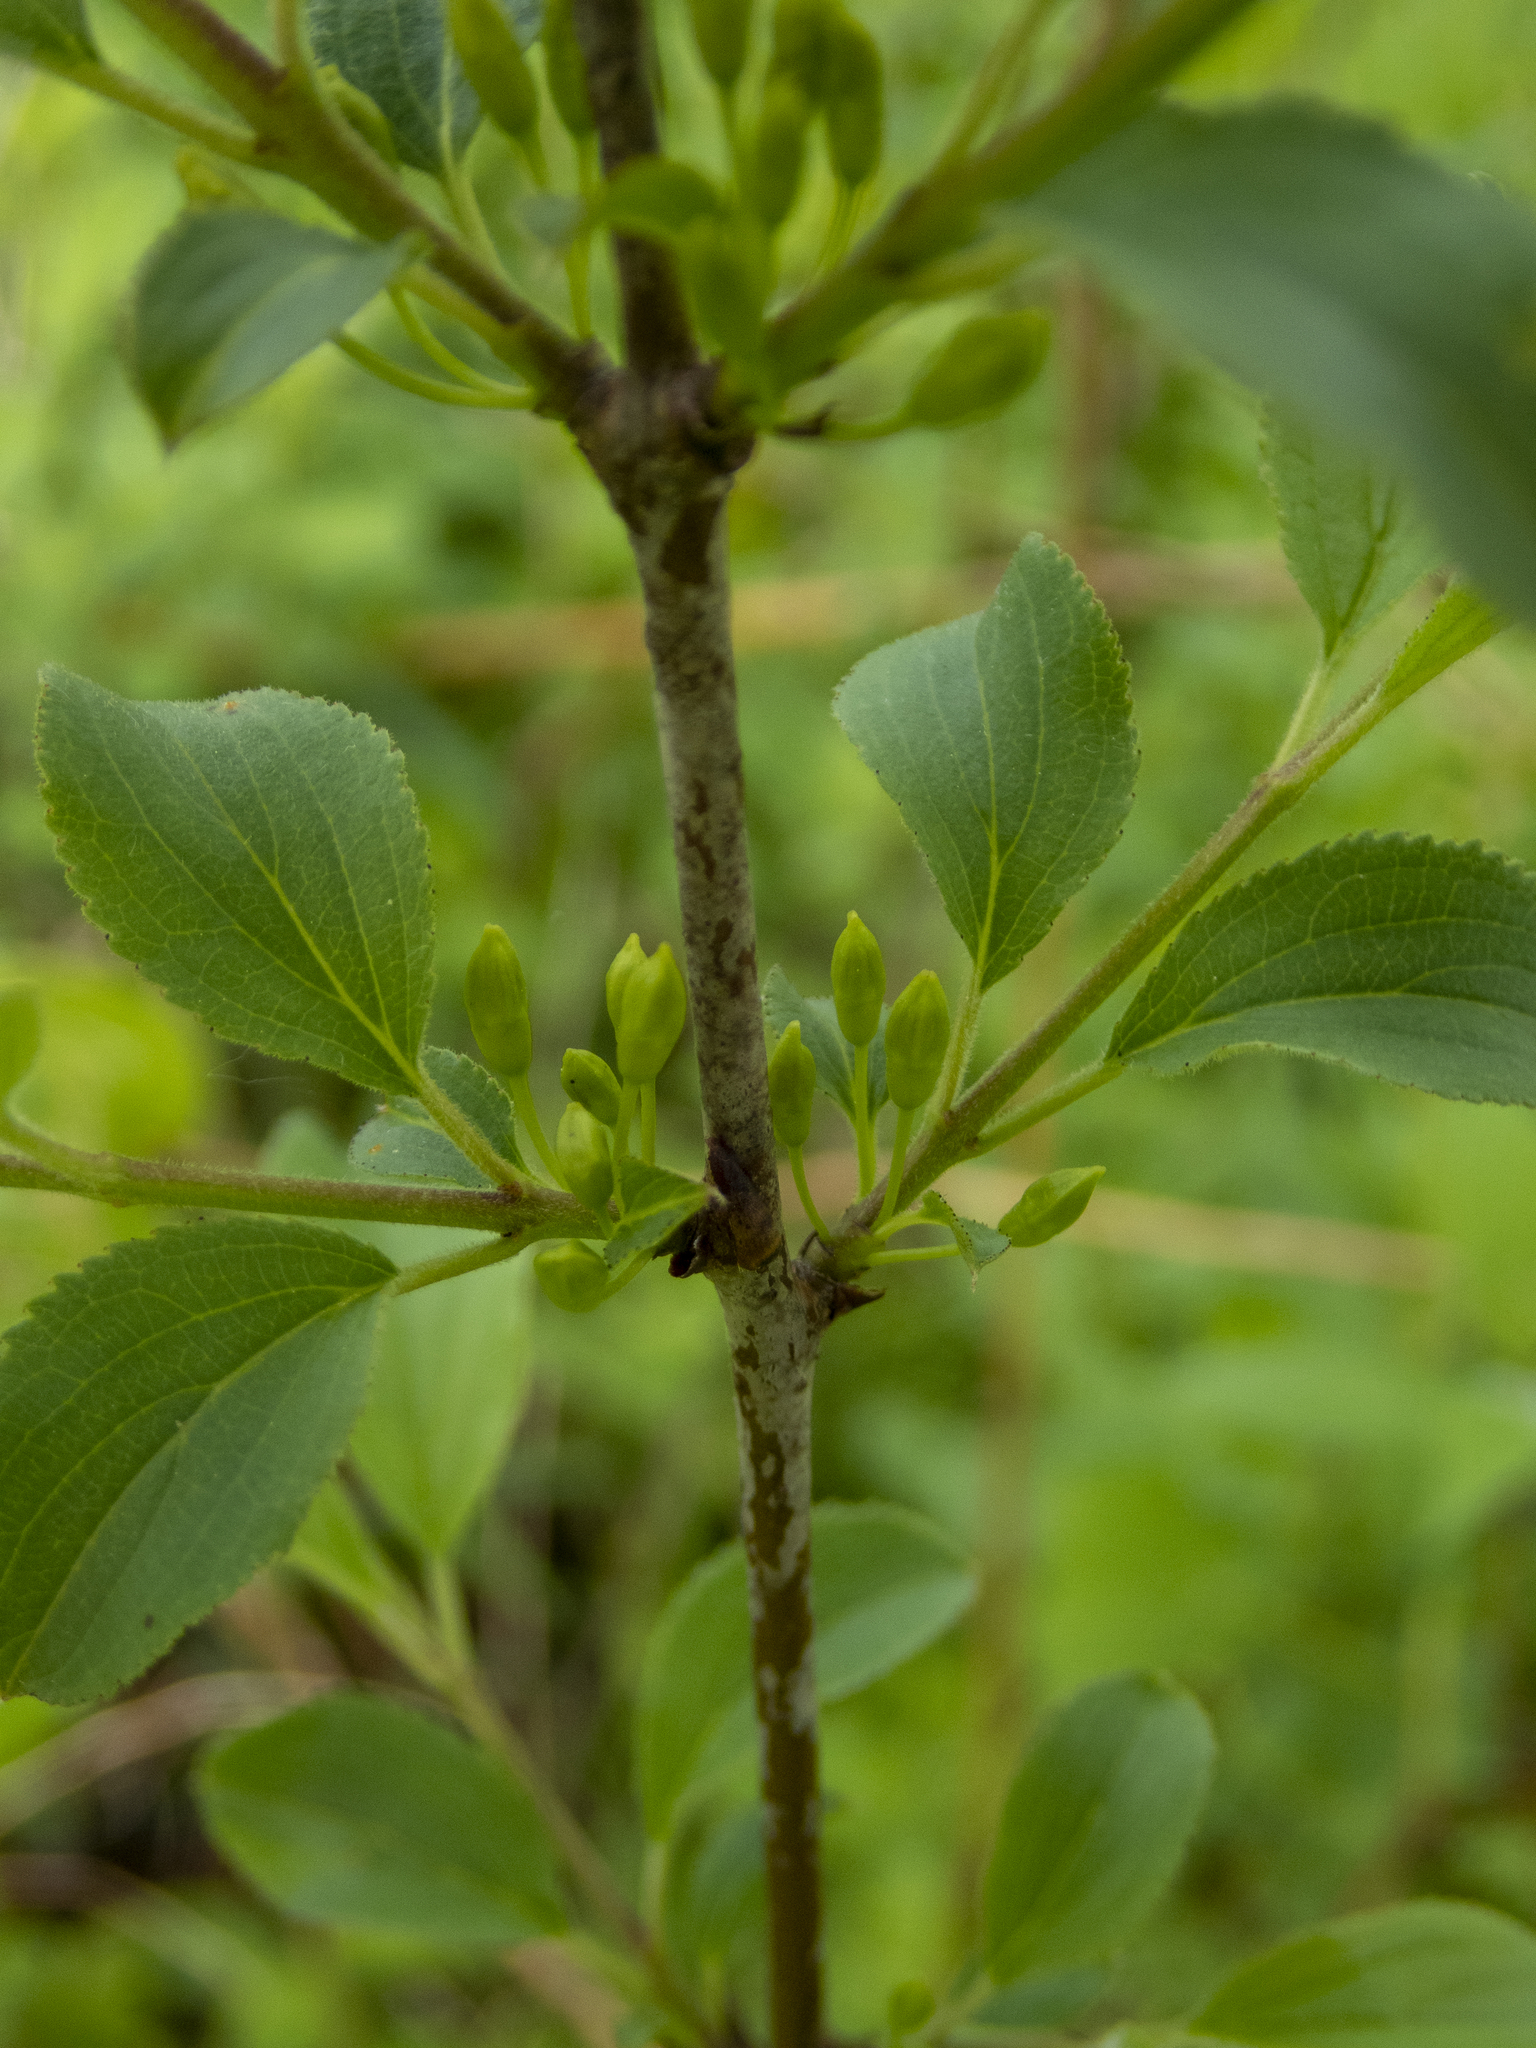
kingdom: Plantae
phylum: Tracheophyta
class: Magnoliopsida
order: Rosales
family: Rhamnaceae
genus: Rhamnus
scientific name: Rhamnus cathartica
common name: Common buckthorn
